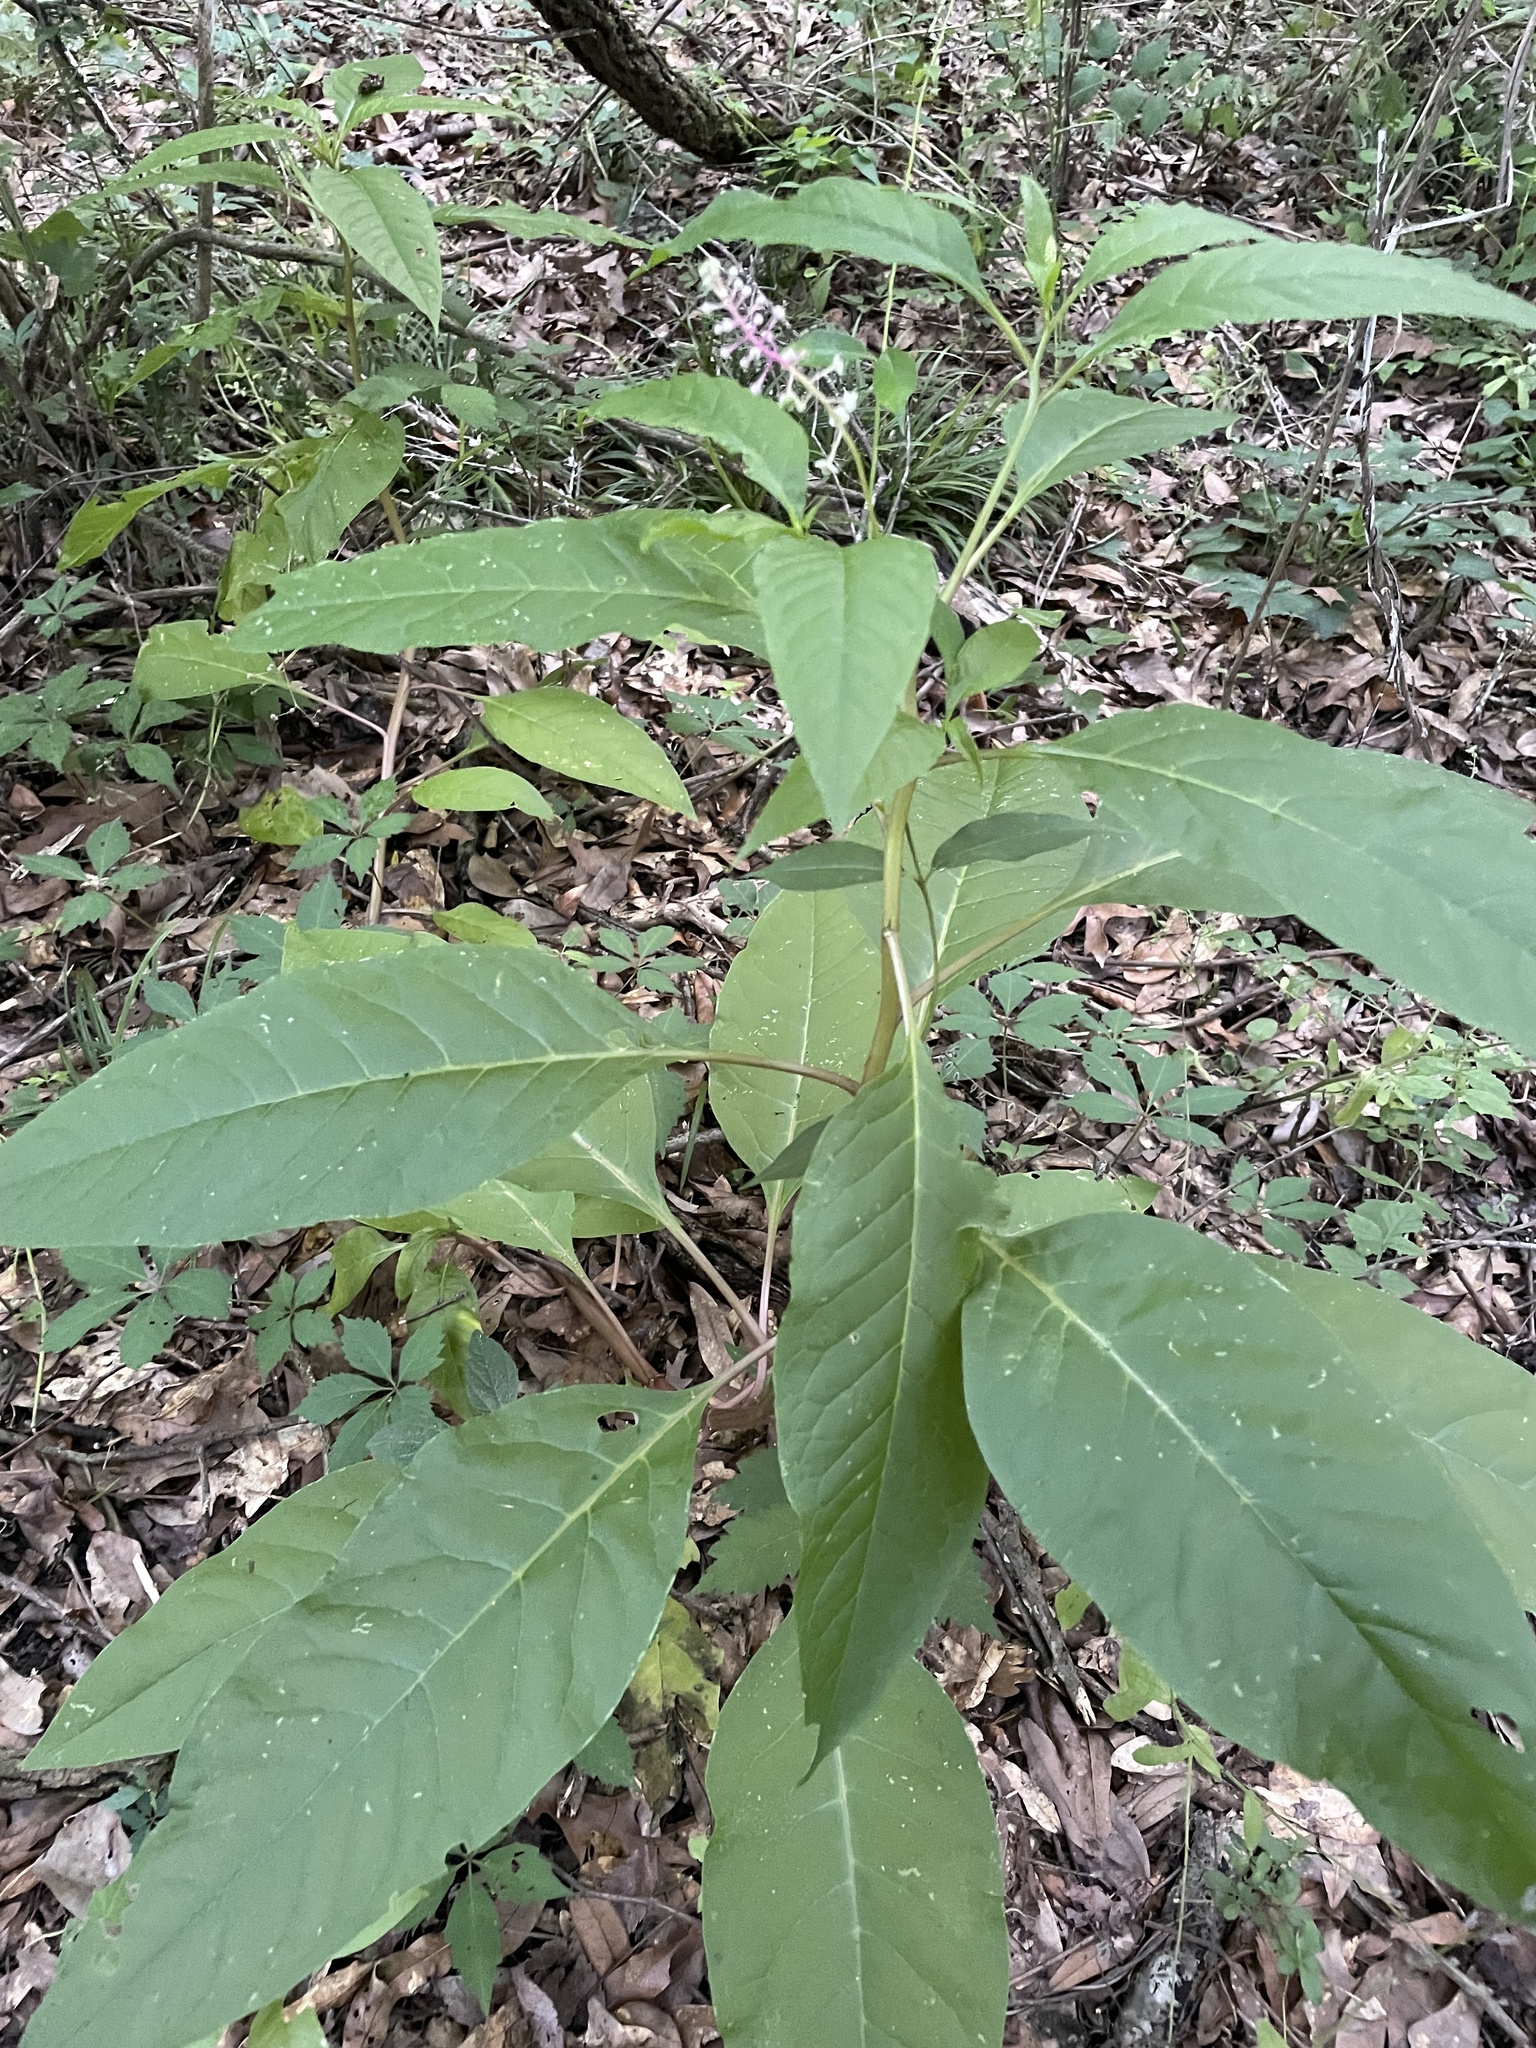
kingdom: Plantae
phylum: Tracheophyta
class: Magnoliopsida
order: Caryophyllales
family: Phytolaccaceae
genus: Phytolacca
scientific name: Phytolacca americana
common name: American pokeweed
